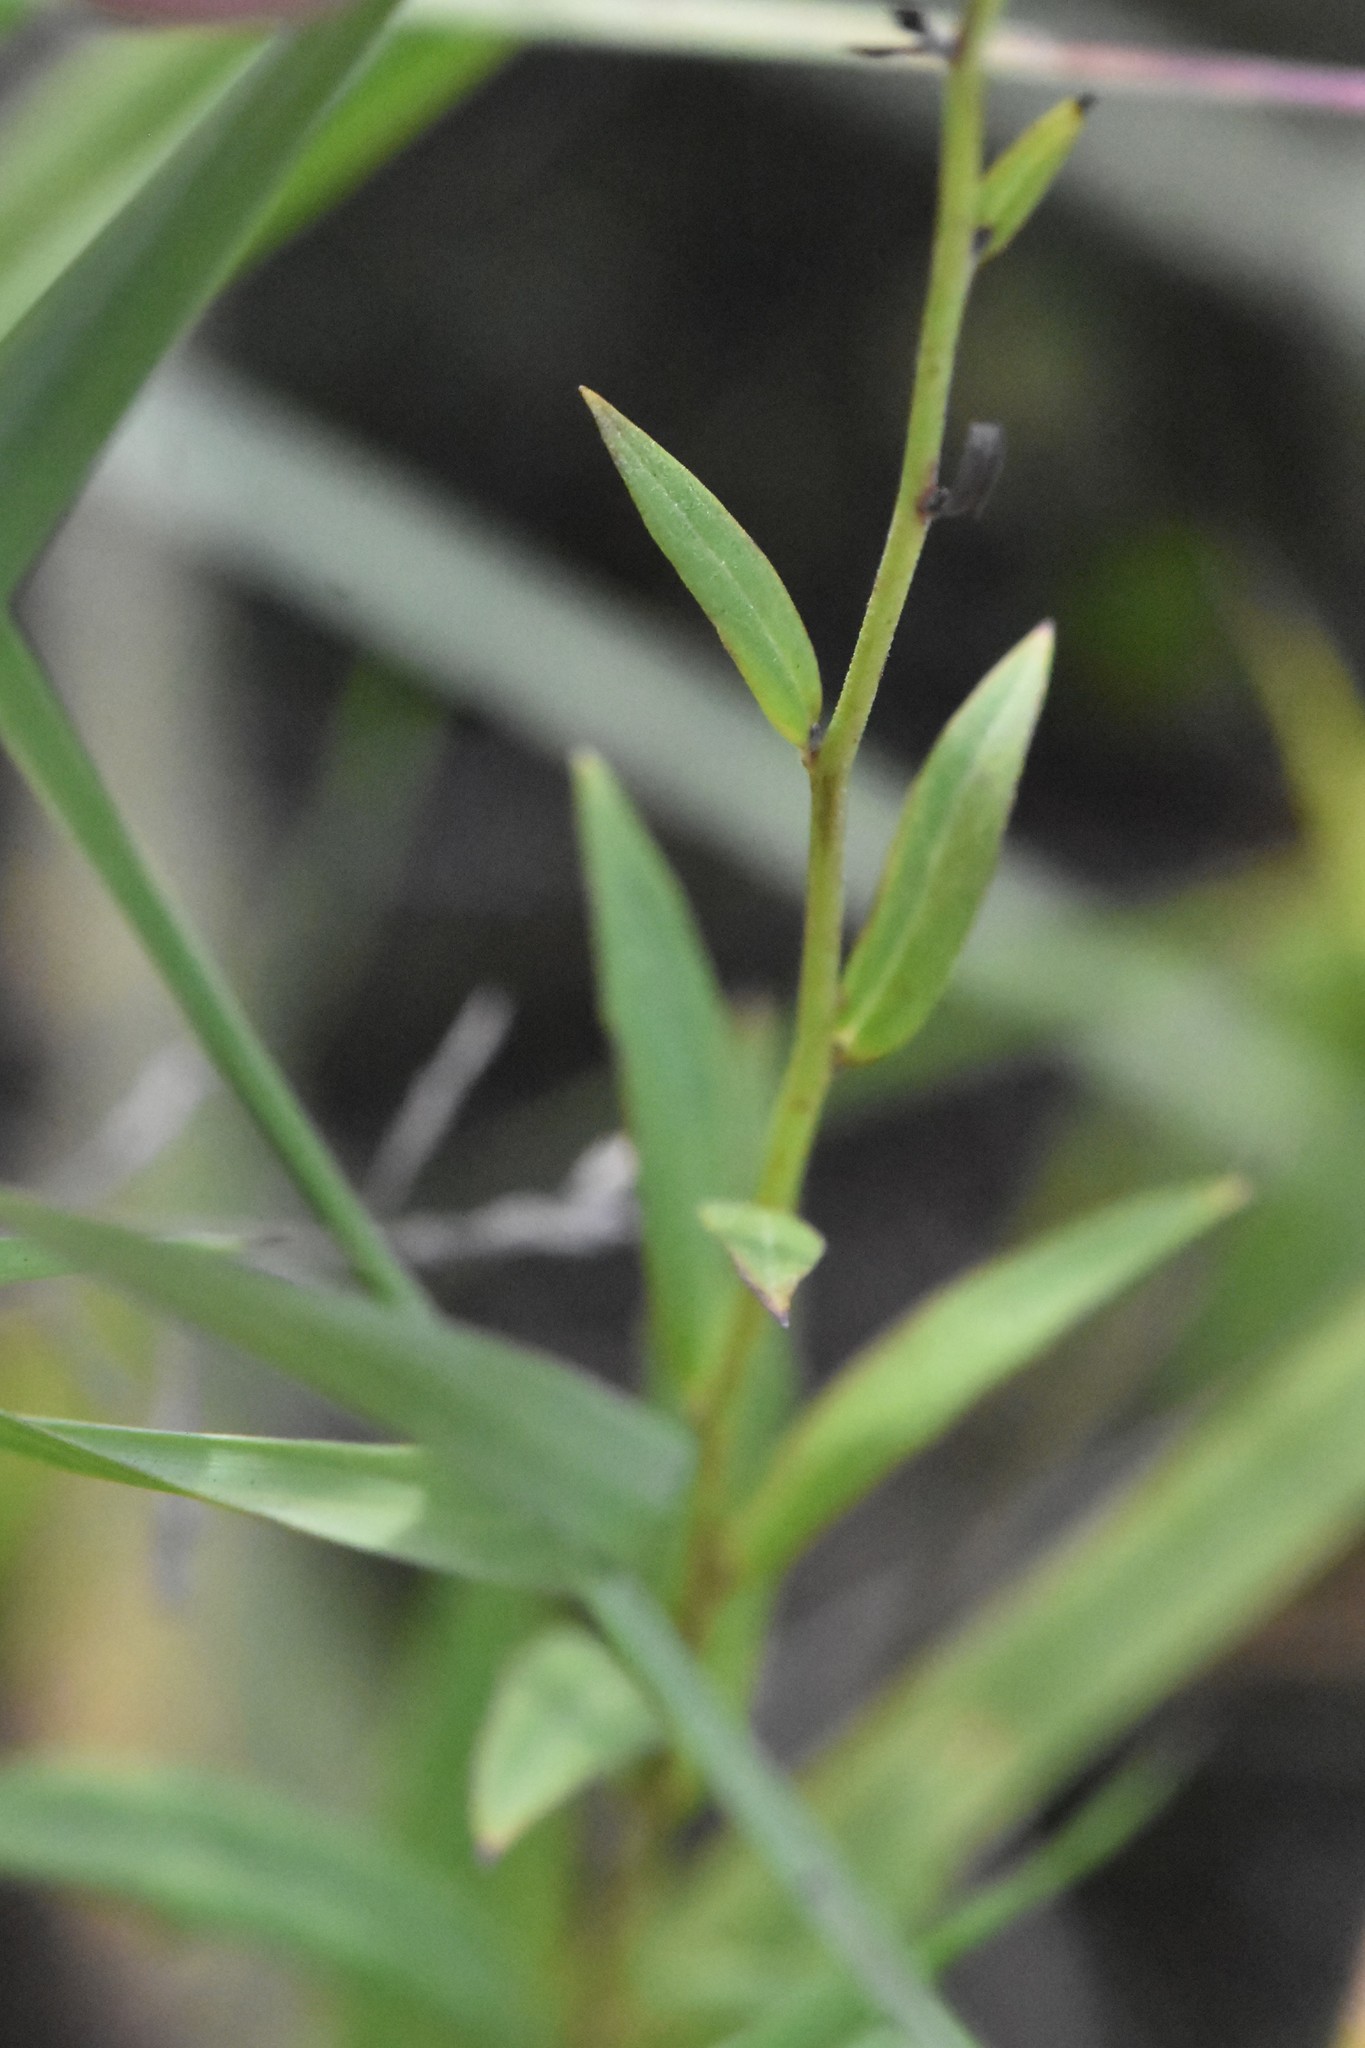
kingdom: Plantae
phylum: Tracheophyta
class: Magnoliopsida
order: Asterales
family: Asteraceae
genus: Hieracium
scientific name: Hieracium umbellatum
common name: Northern hawkweed
